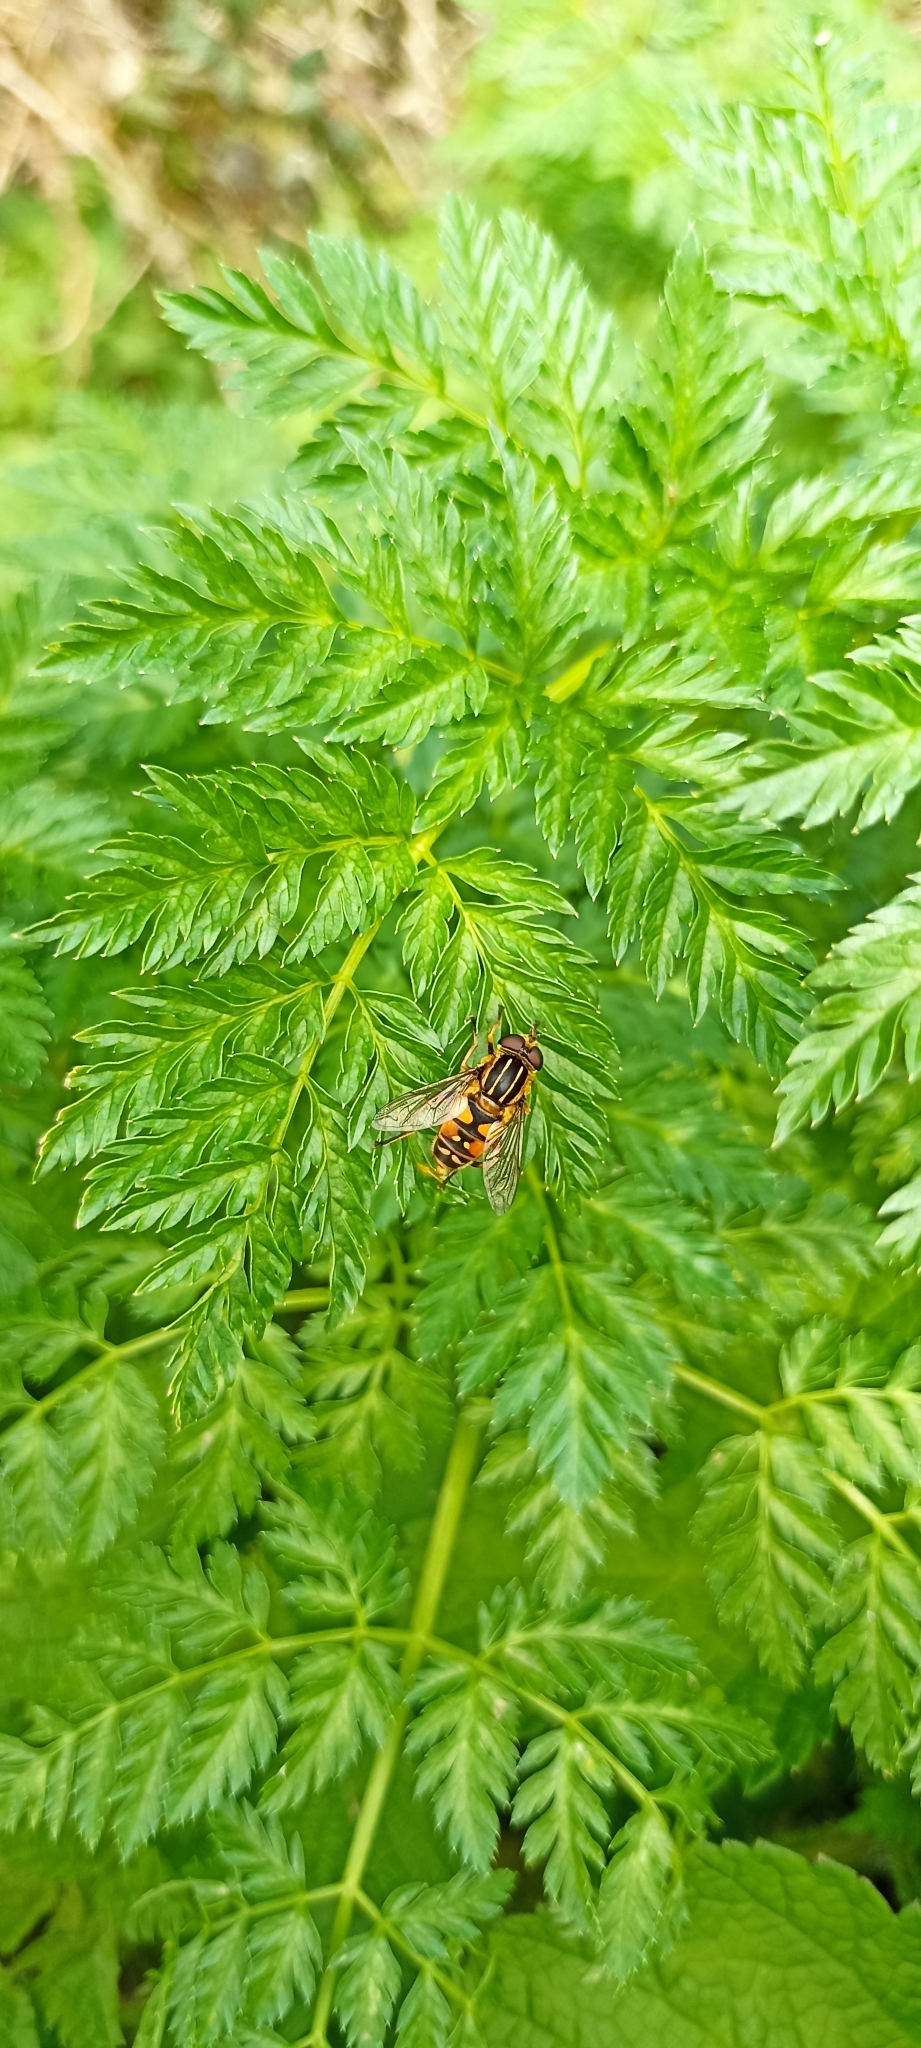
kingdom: Animalia
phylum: Arthropoda
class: Insecta
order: Diptera
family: Syrphidae
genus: Helophilus
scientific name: Helophilus pendulus
